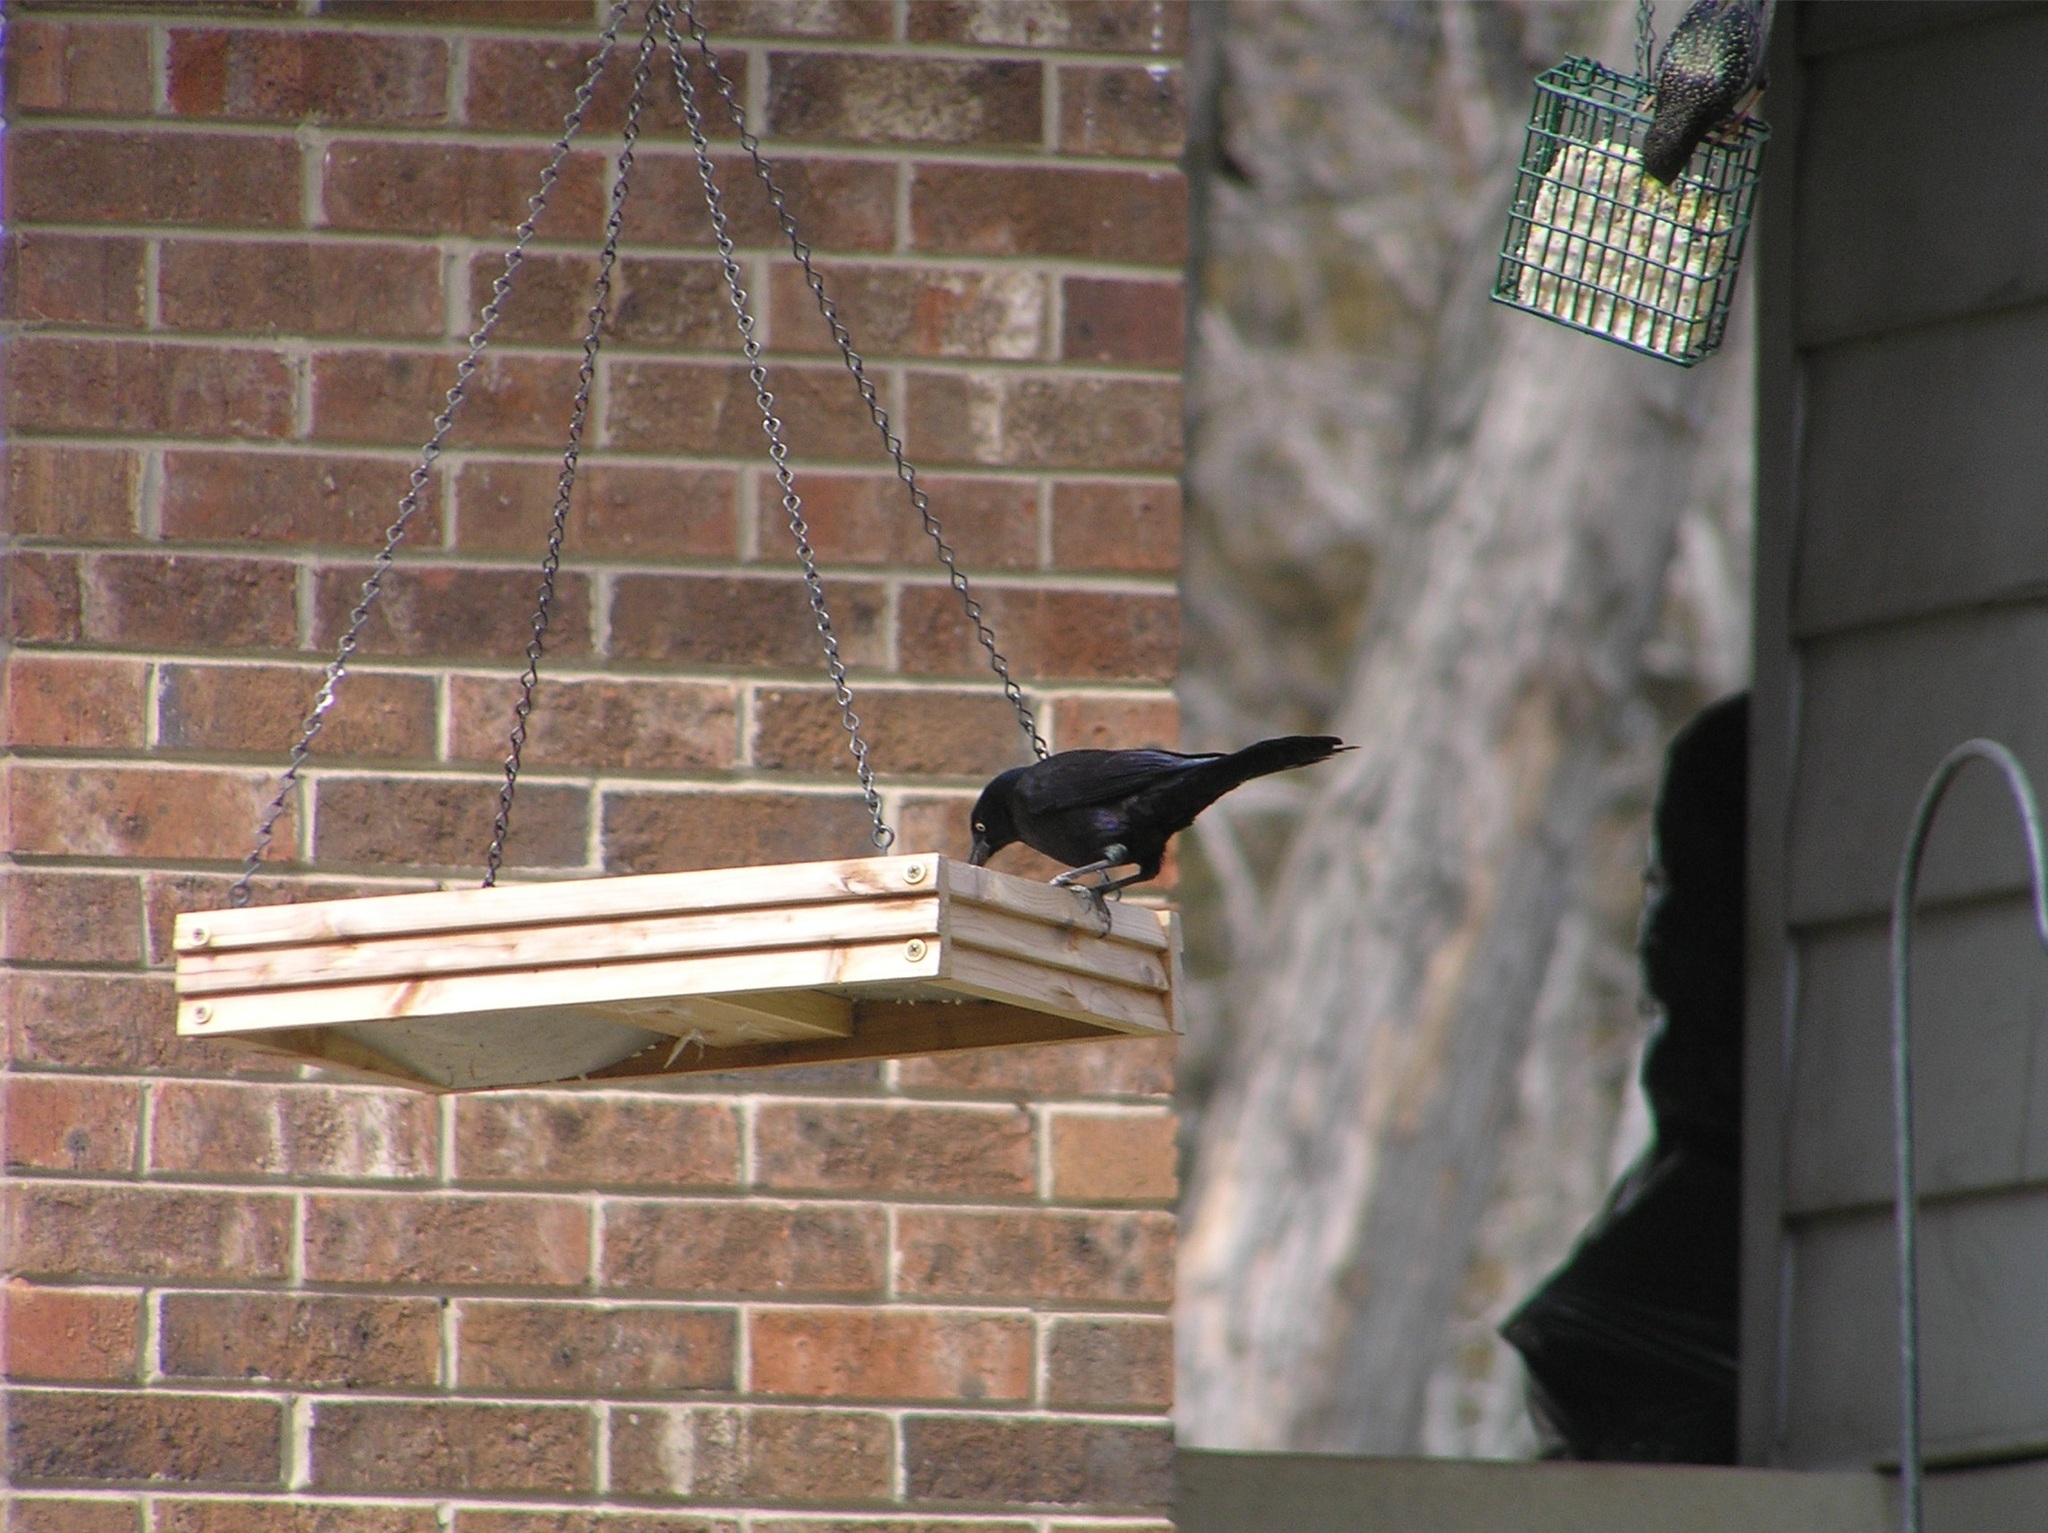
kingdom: Animalia
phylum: Chordata
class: Aves
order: Passeriformes
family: Icteridae
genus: Quiscalus
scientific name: Quiscalus quiscula
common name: Common grackle
